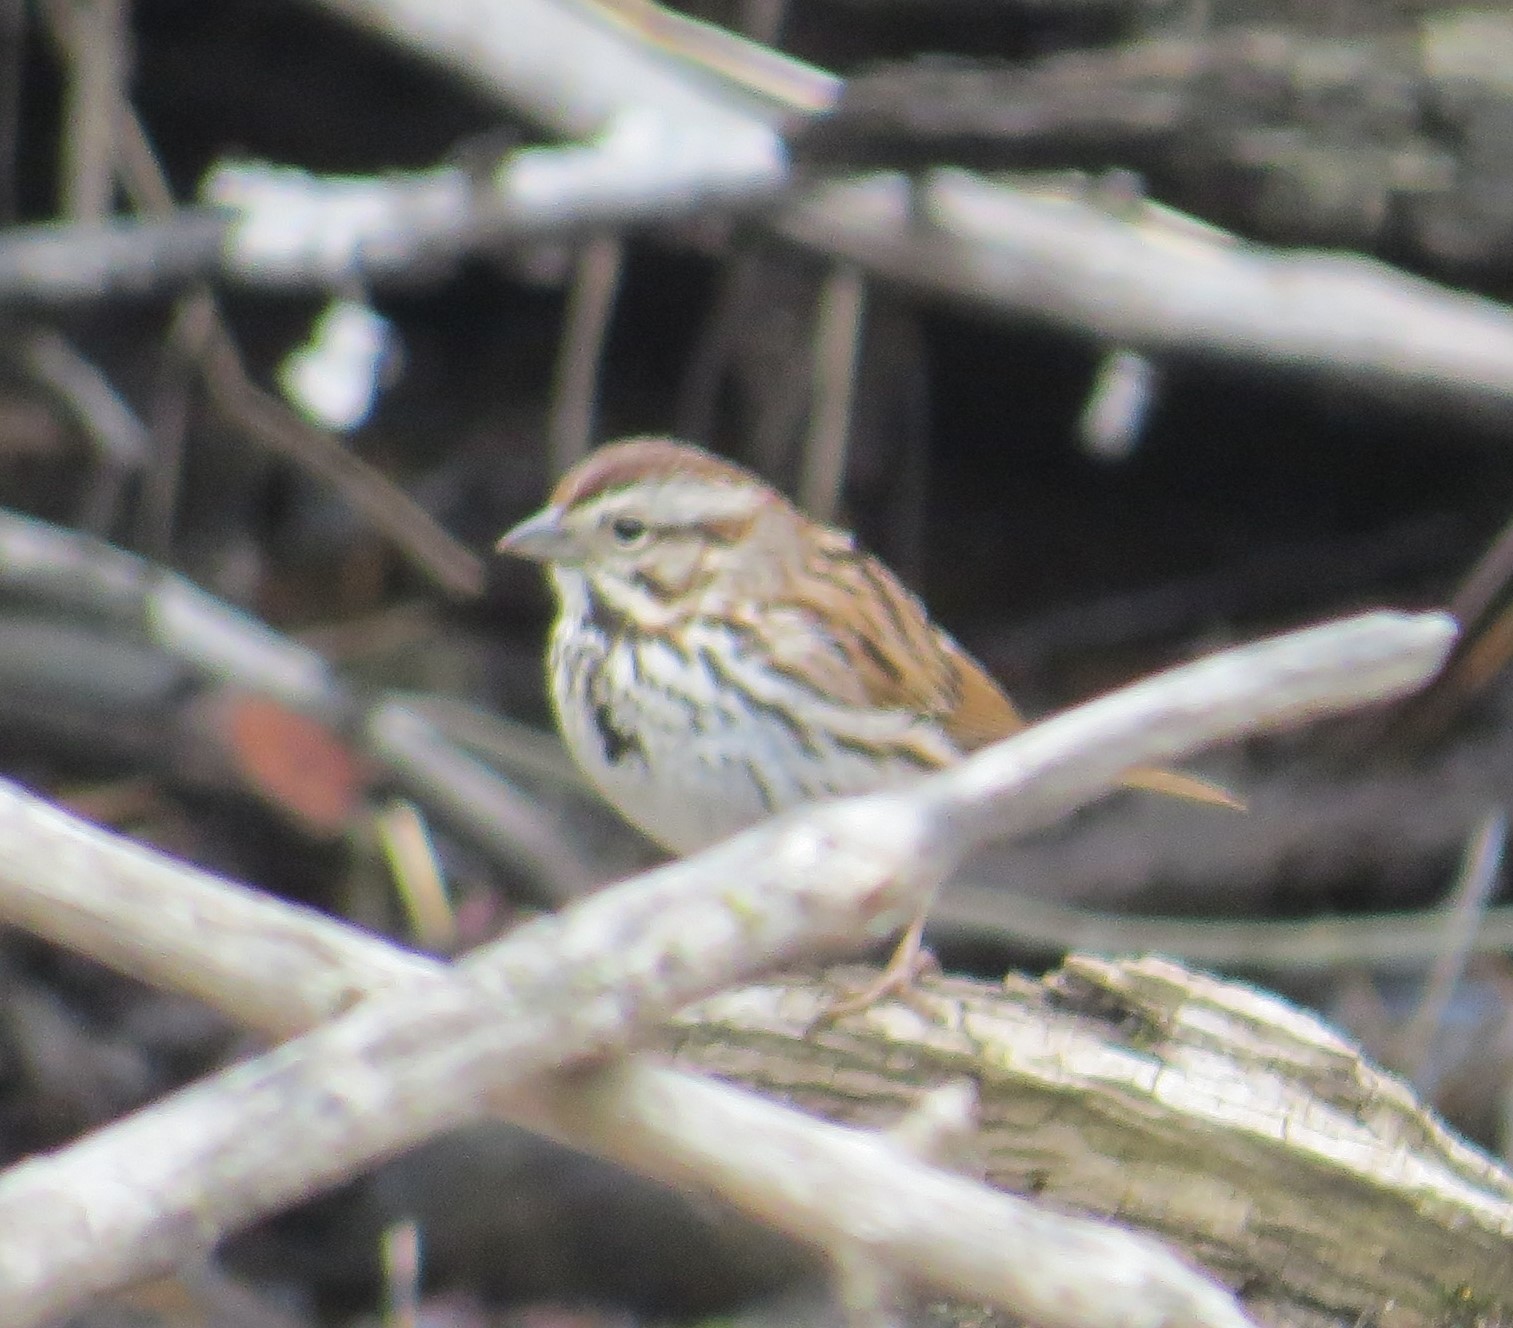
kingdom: Animalia
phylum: Chordata
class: Aves
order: Passeriformes
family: Passerellidae
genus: Melospiza
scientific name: Melospiza melodia
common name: Song sparrow
